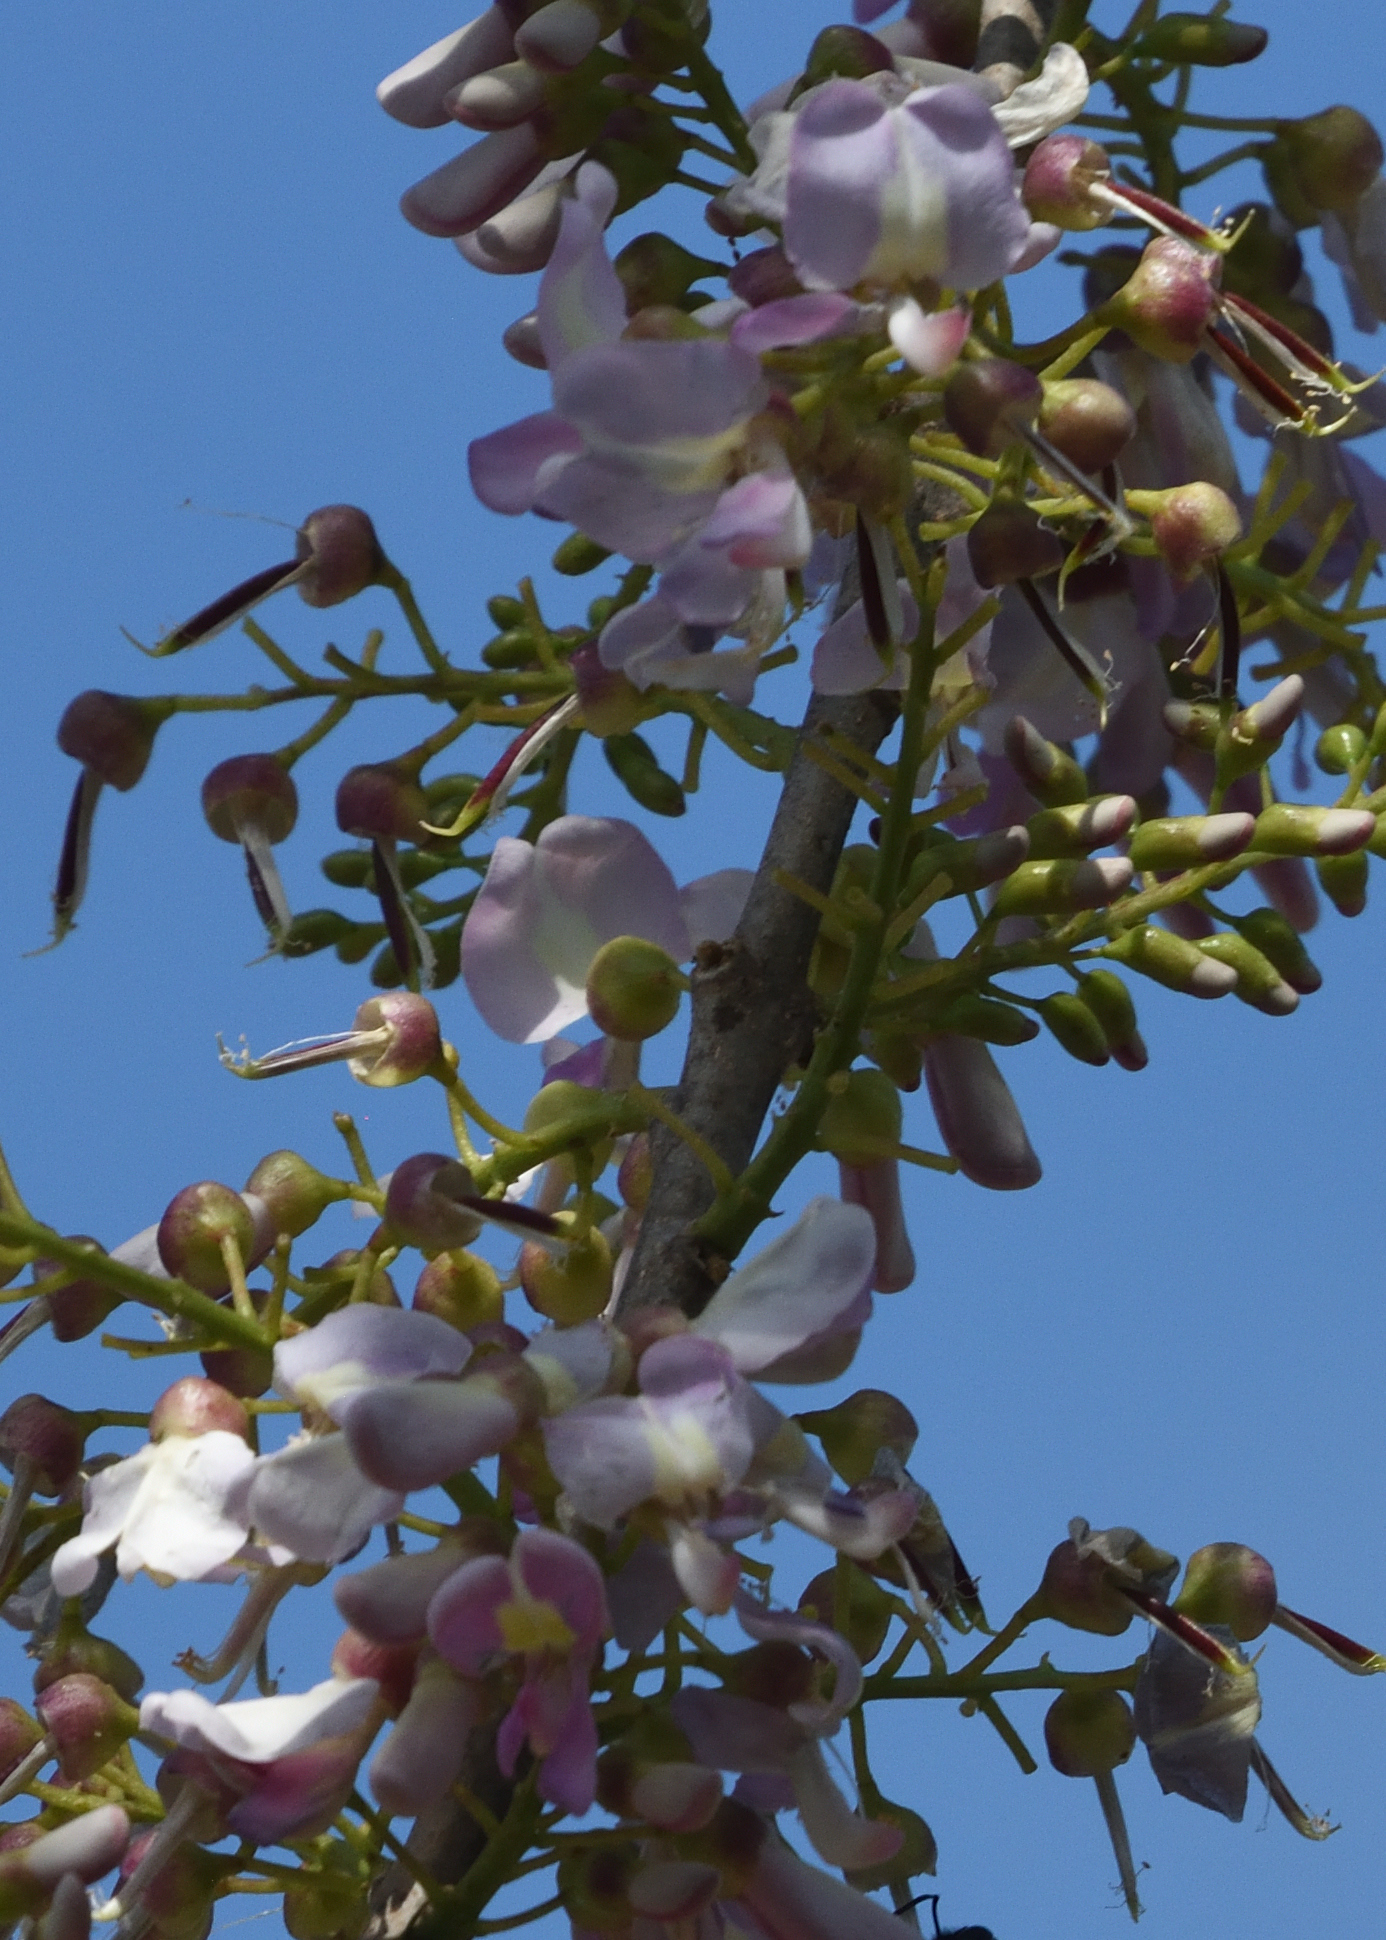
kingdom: Plantae
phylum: Tracheophyta
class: Magnoliopsida
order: Fabales
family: Fabaceae
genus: Gliricidia
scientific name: Gliricidia sepium
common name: Quickstick
